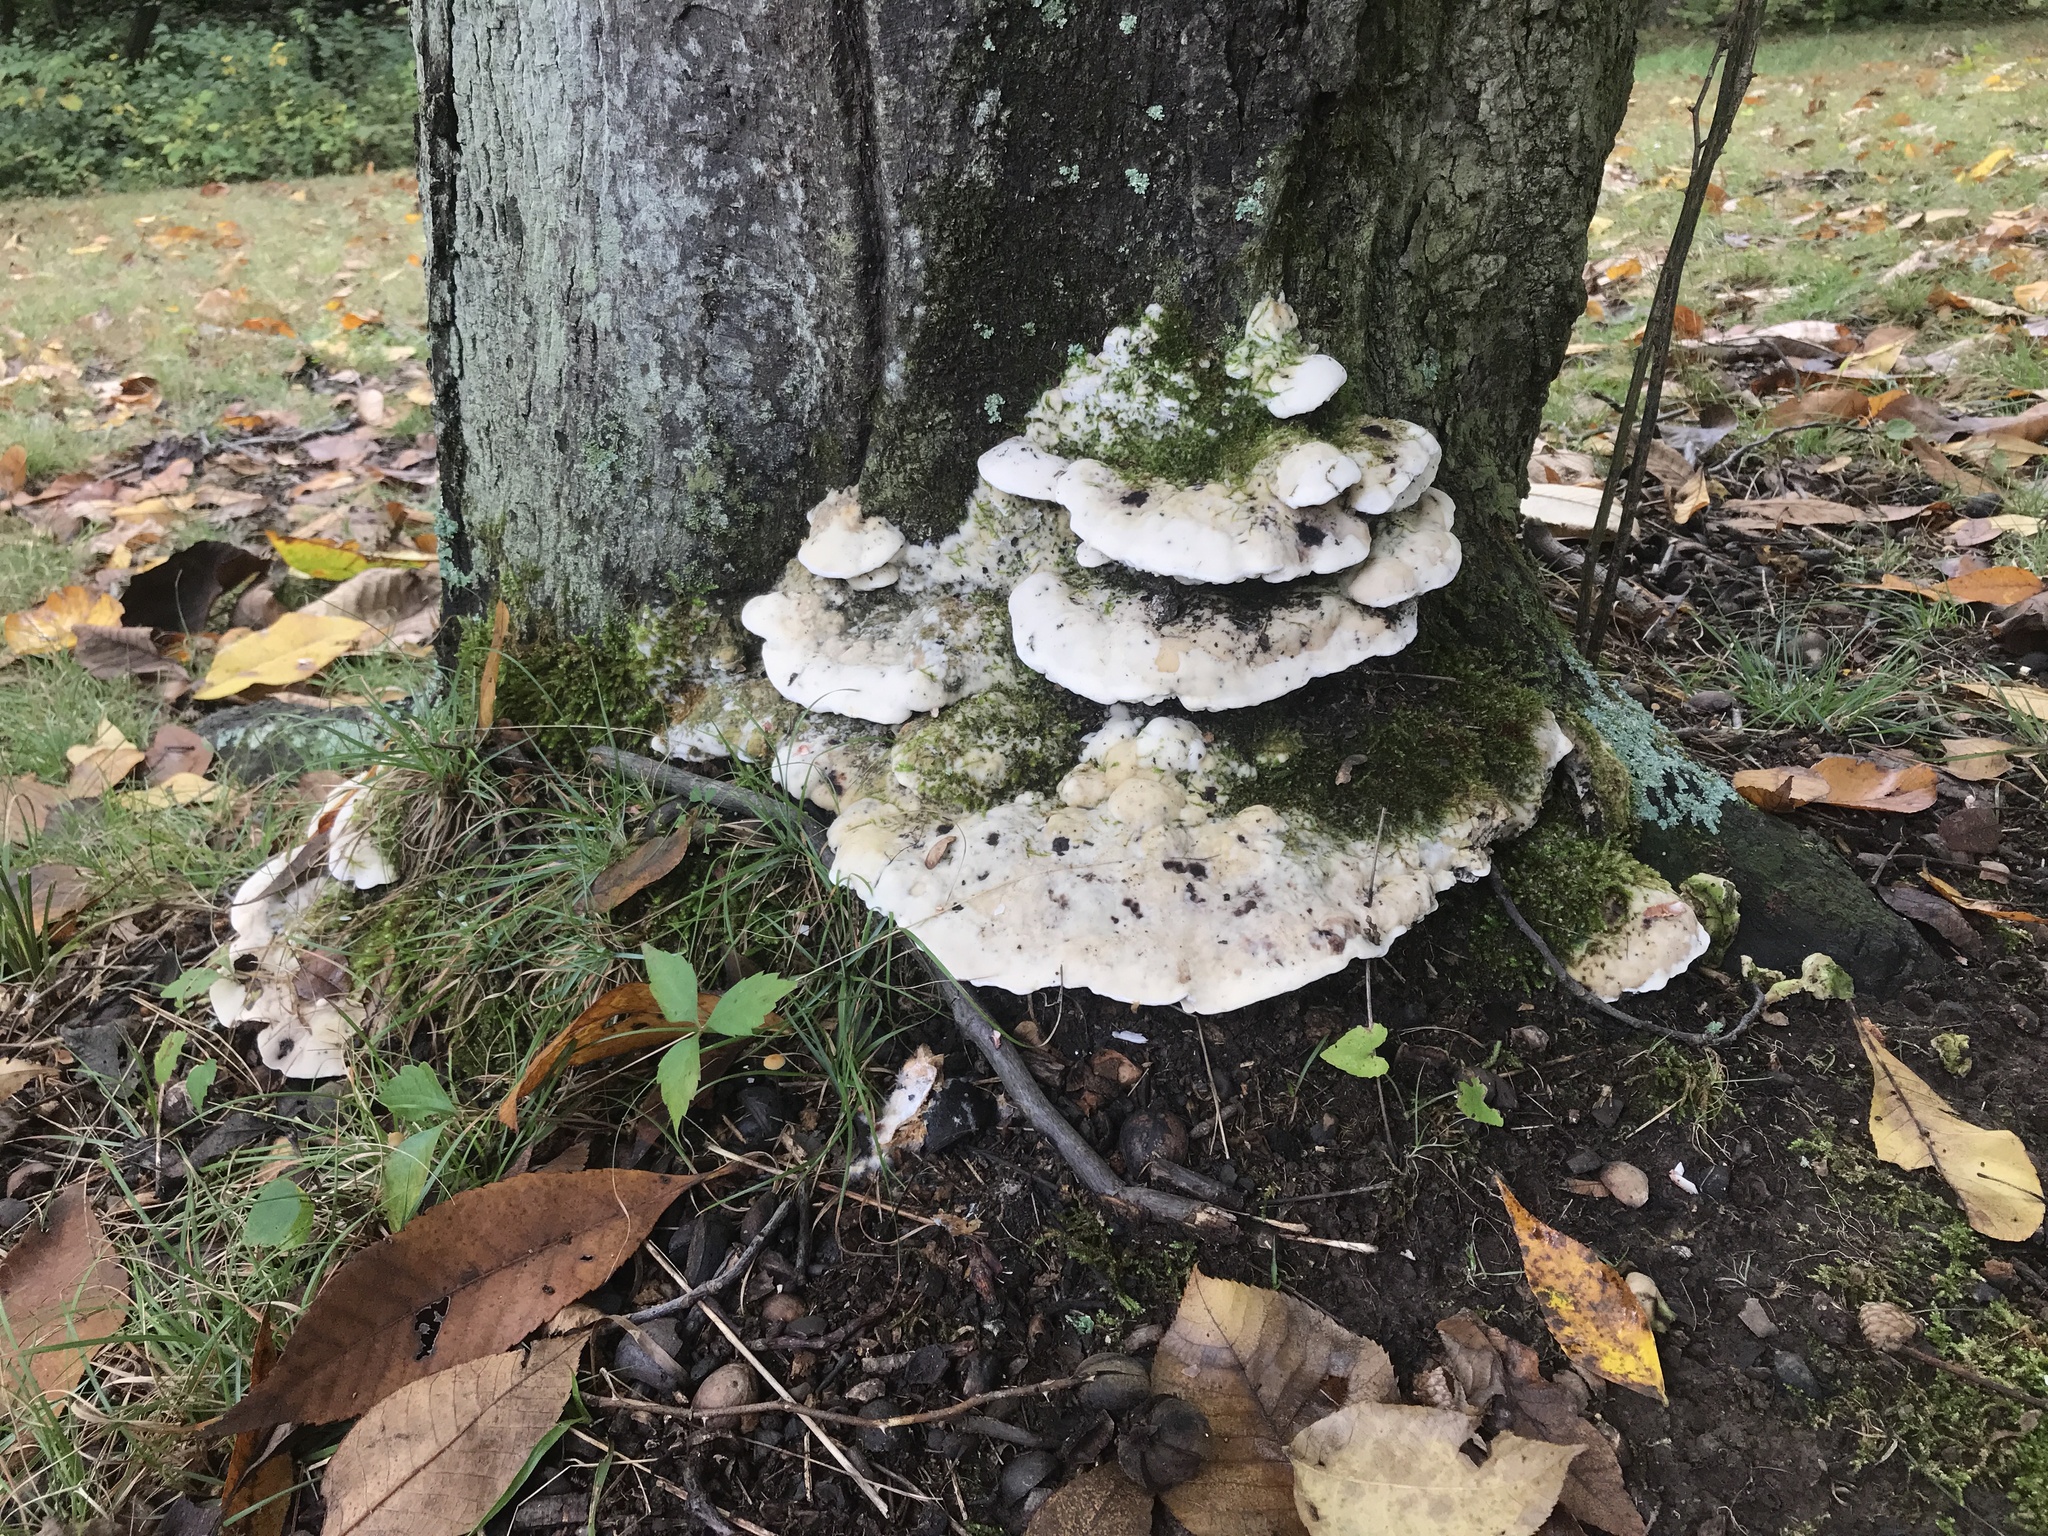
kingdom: Fungi
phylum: Basidiomycota
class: Agaricomycetes
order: Hymenochaetales
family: Oxyporaceae
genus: Oxyporus
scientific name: Oxyporus populinus
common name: Poplar bracket
